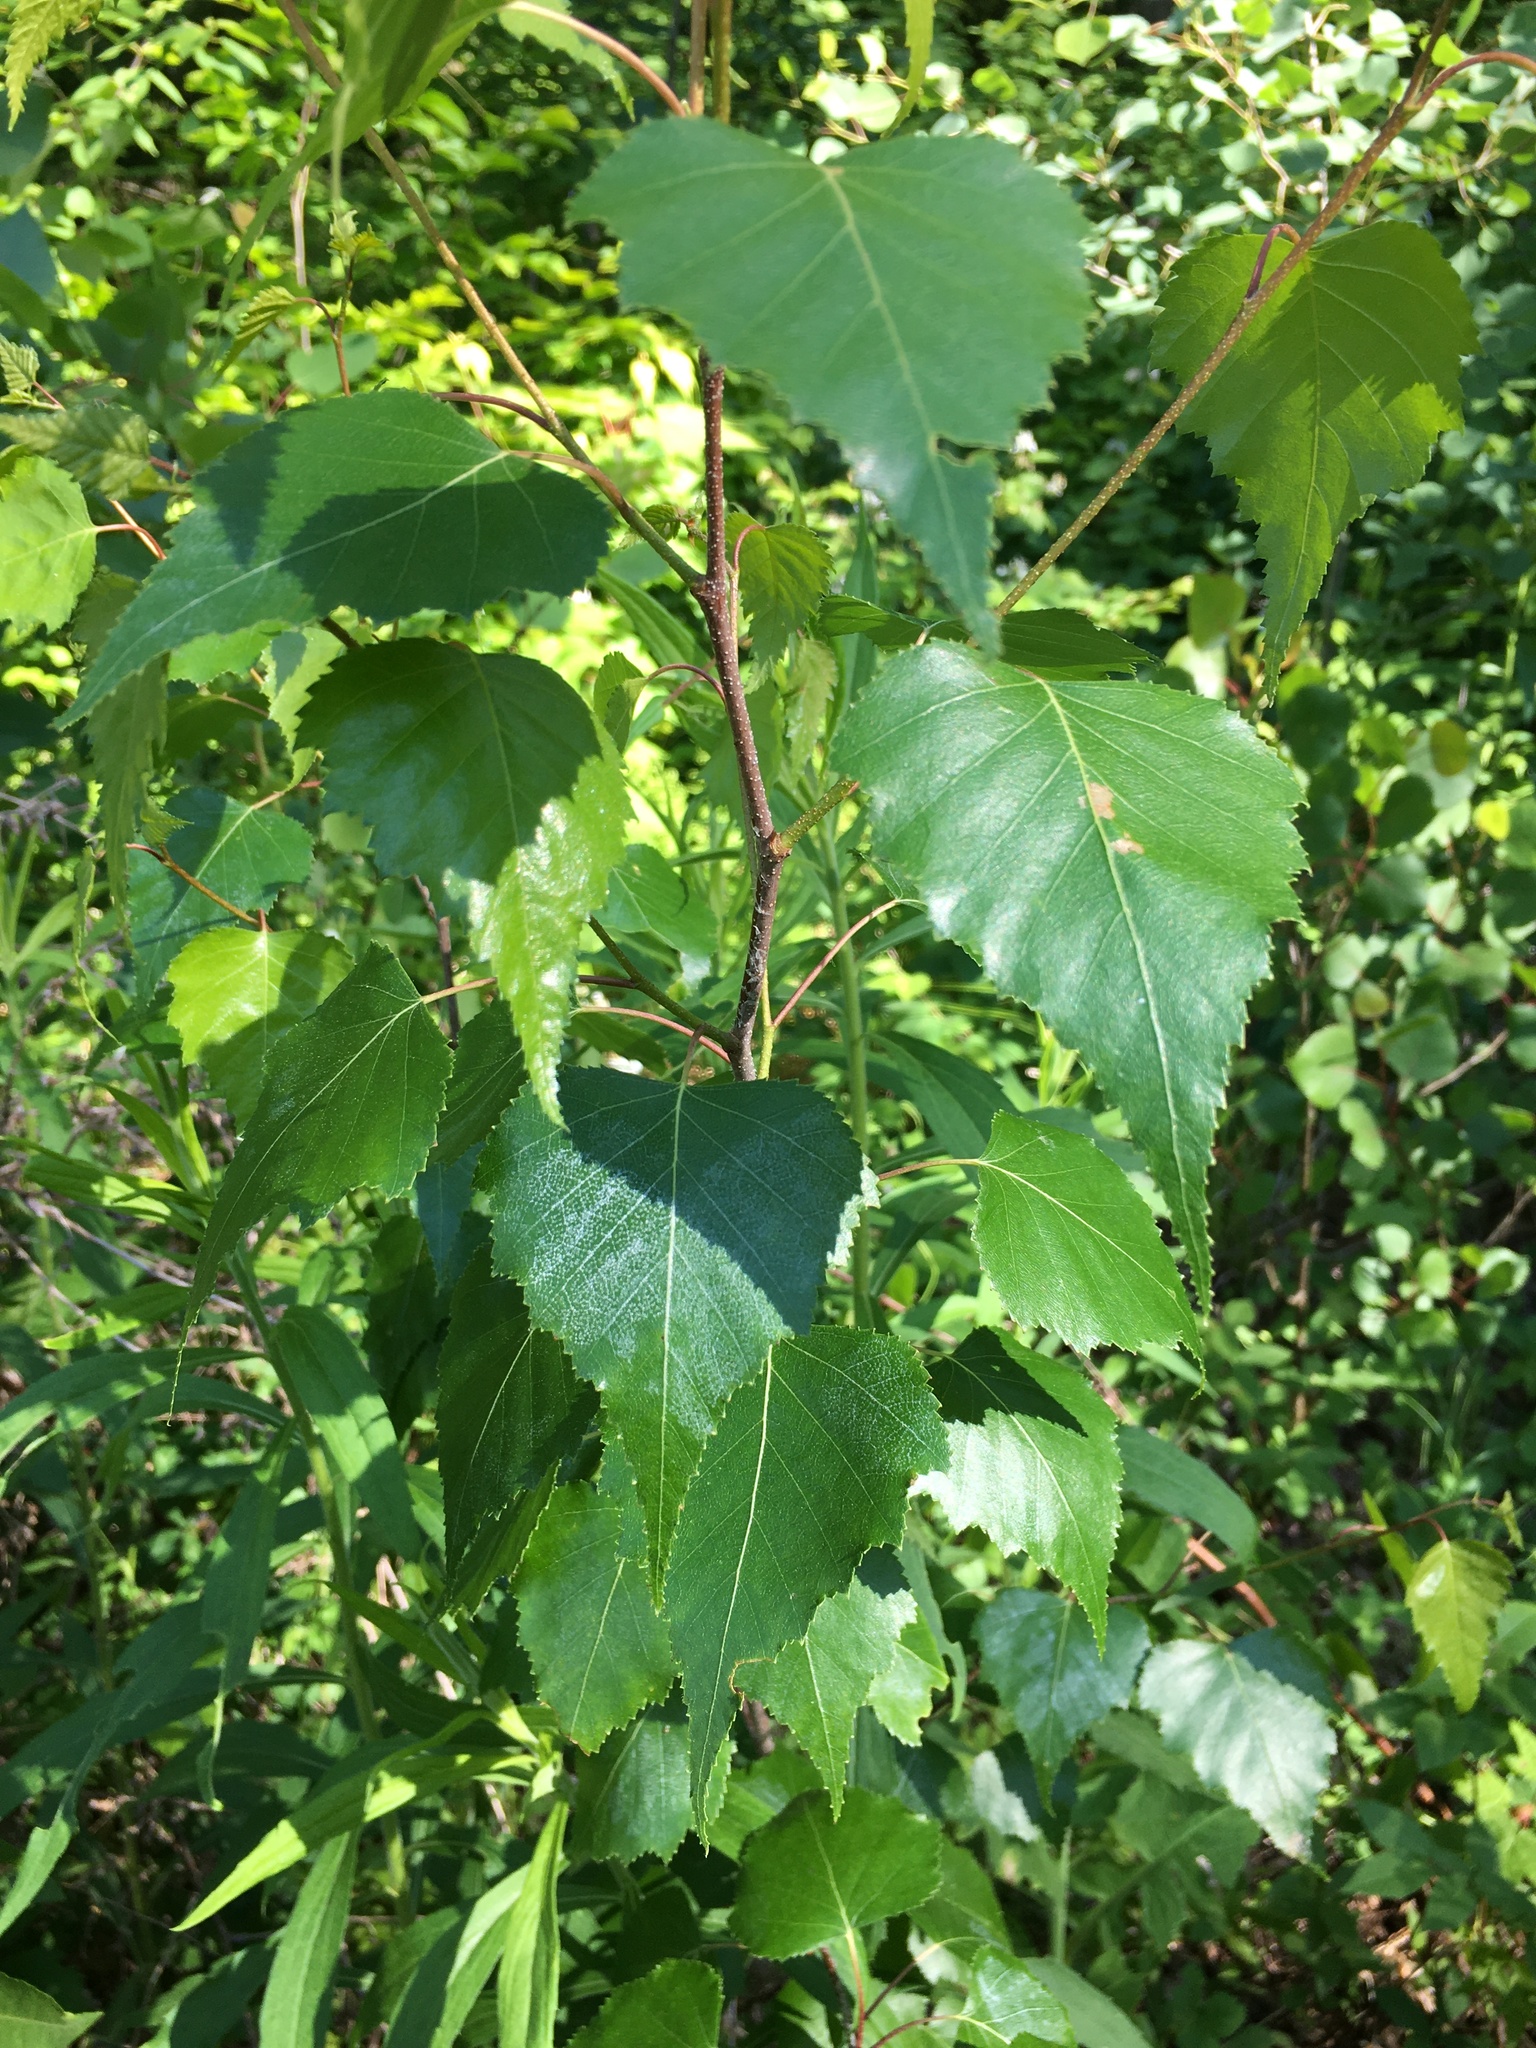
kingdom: Plantae
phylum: Tracheophyta
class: Magnoliopsida
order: Fagales
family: Betulaceae
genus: Betula
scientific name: Betula populifolia
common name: Fire birch
